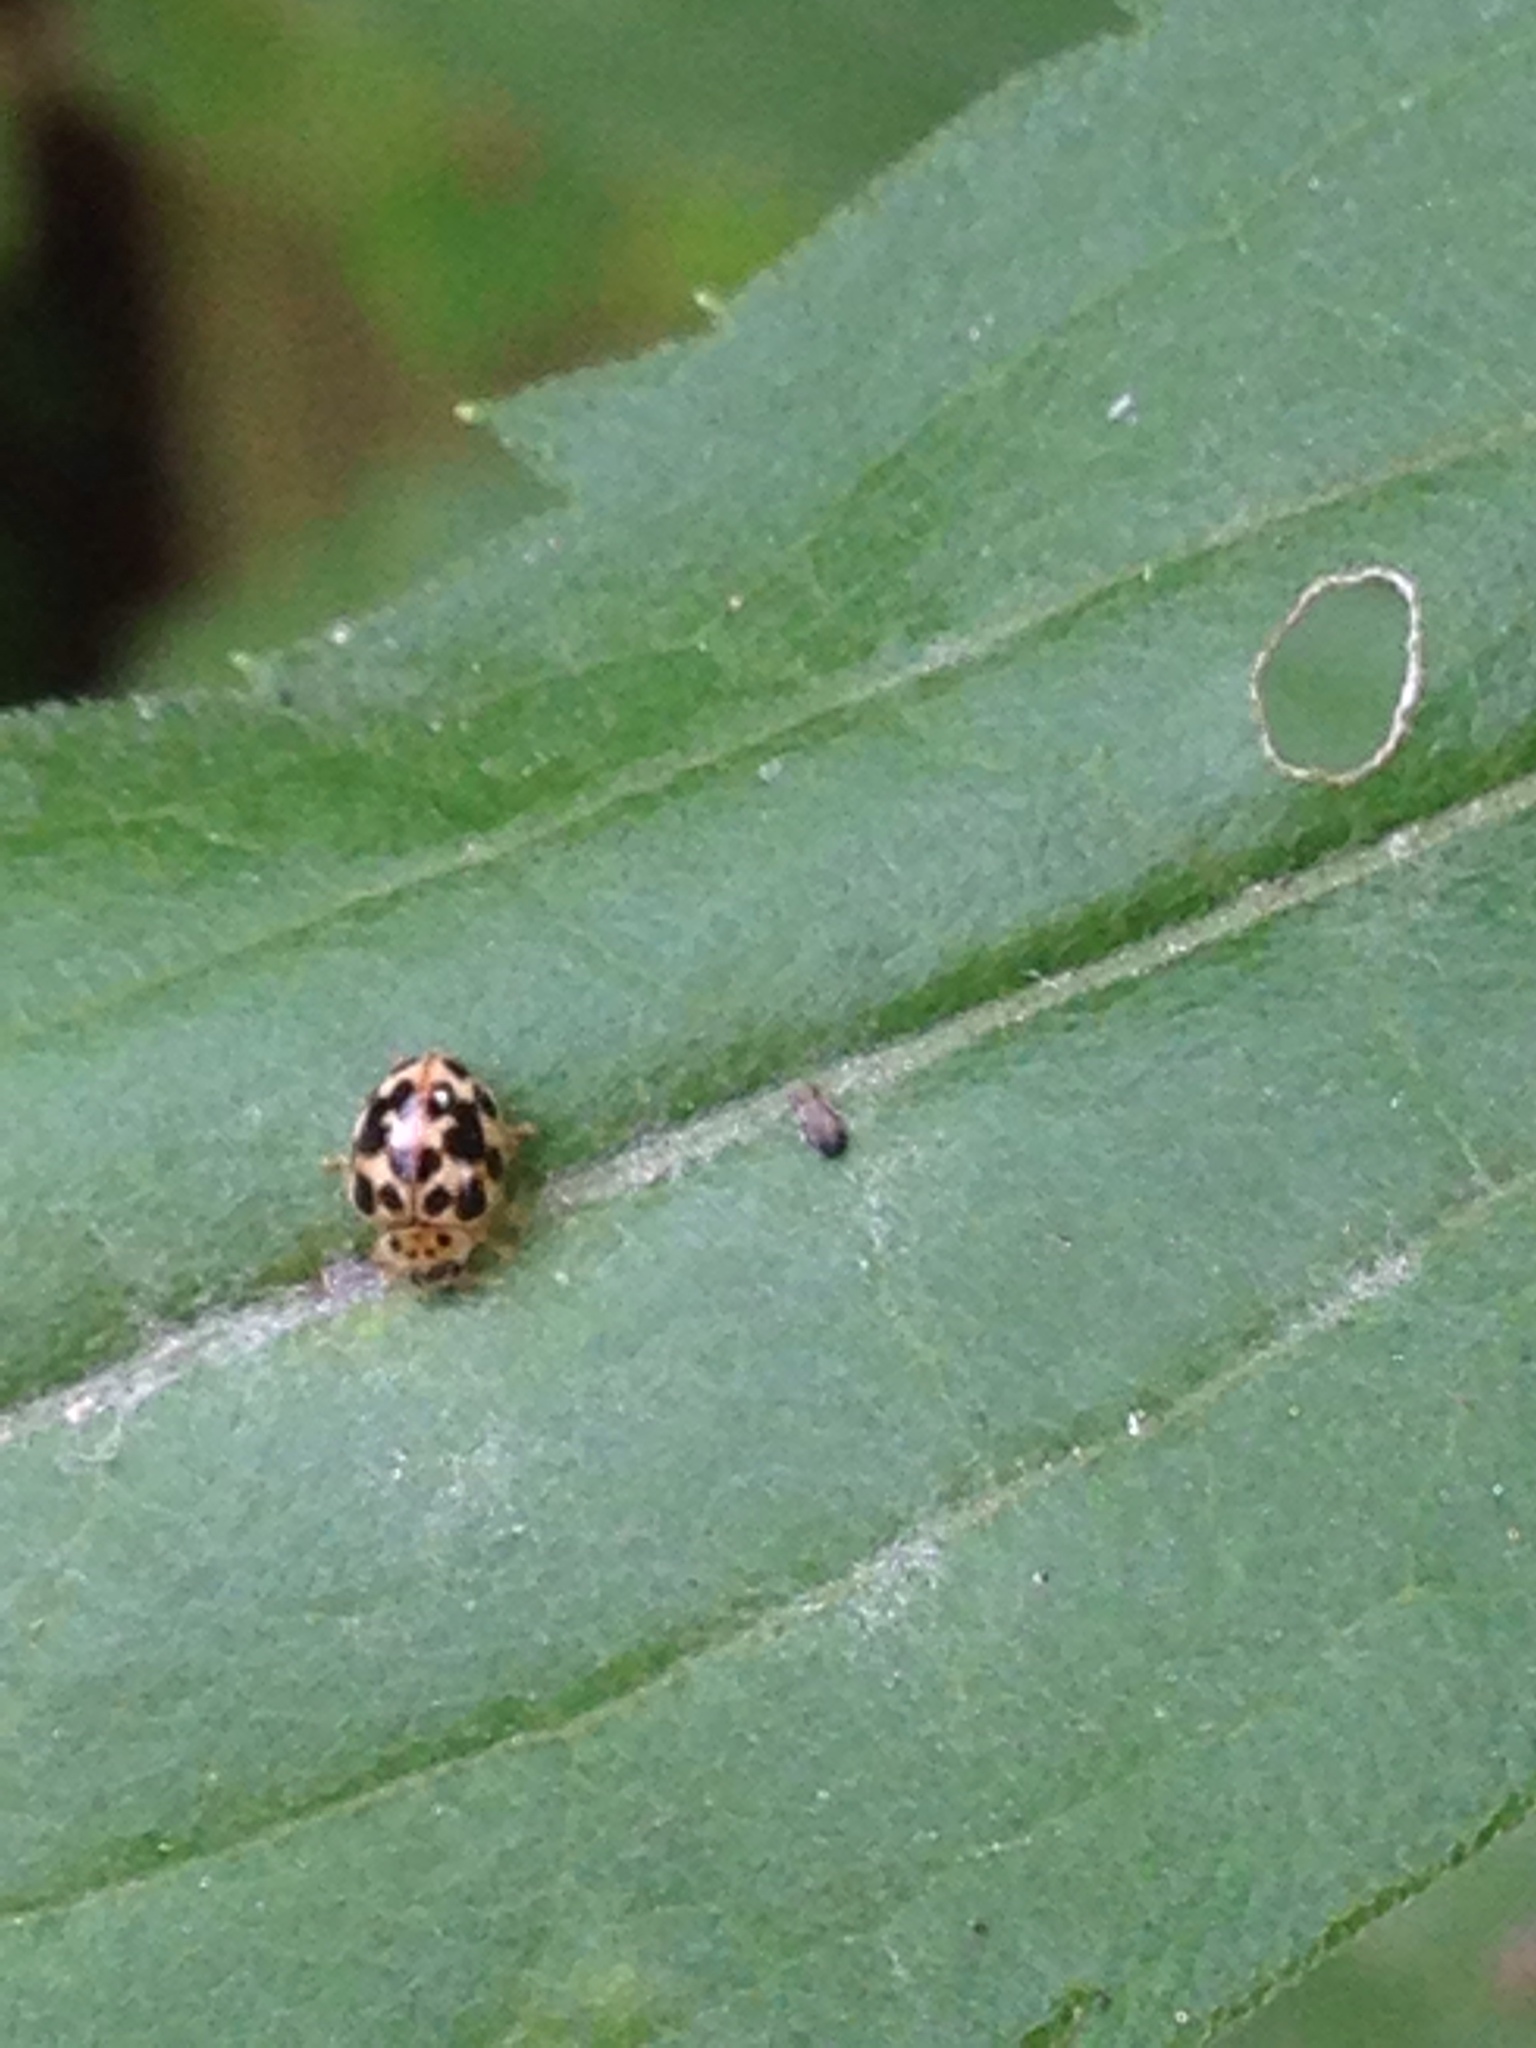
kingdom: Animalia
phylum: Arthropoda
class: Insecta
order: Coleoptera
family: Coccinellidae
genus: Psyllobora
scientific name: Psyllobora vigintimaculata
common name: Ladybird beetle
